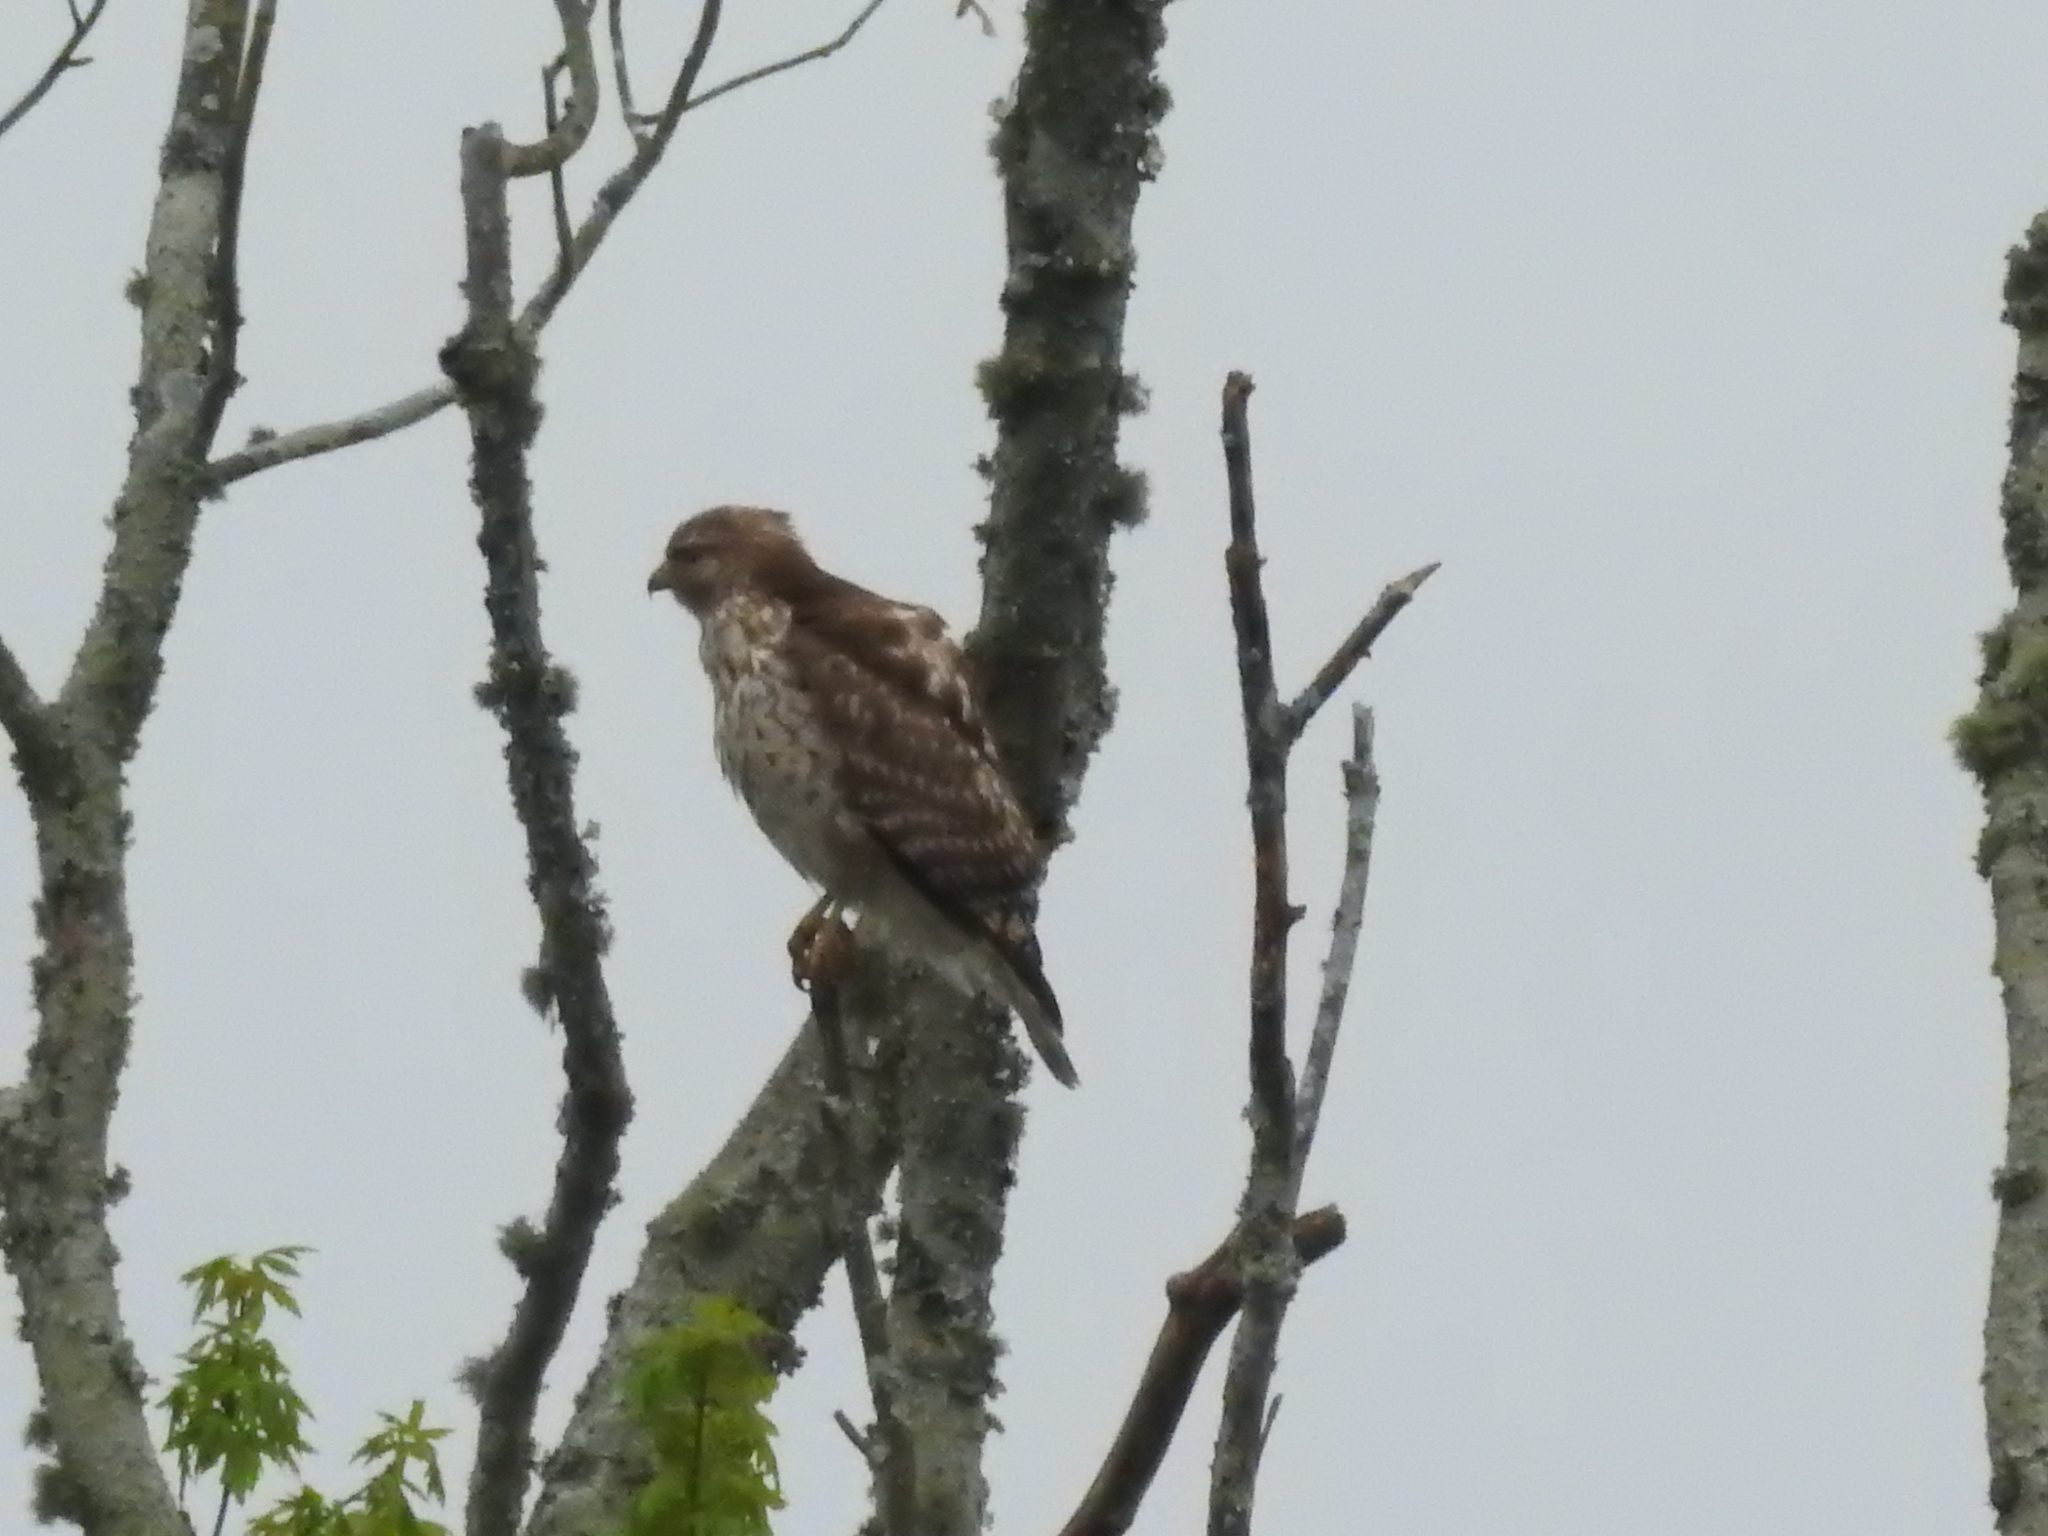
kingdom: Animalia
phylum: Chordata
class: Aves
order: Accipitriformes
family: Accipitridae
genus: Buteo
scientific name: Buteo lineatus
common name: Red-shouldered hawk
